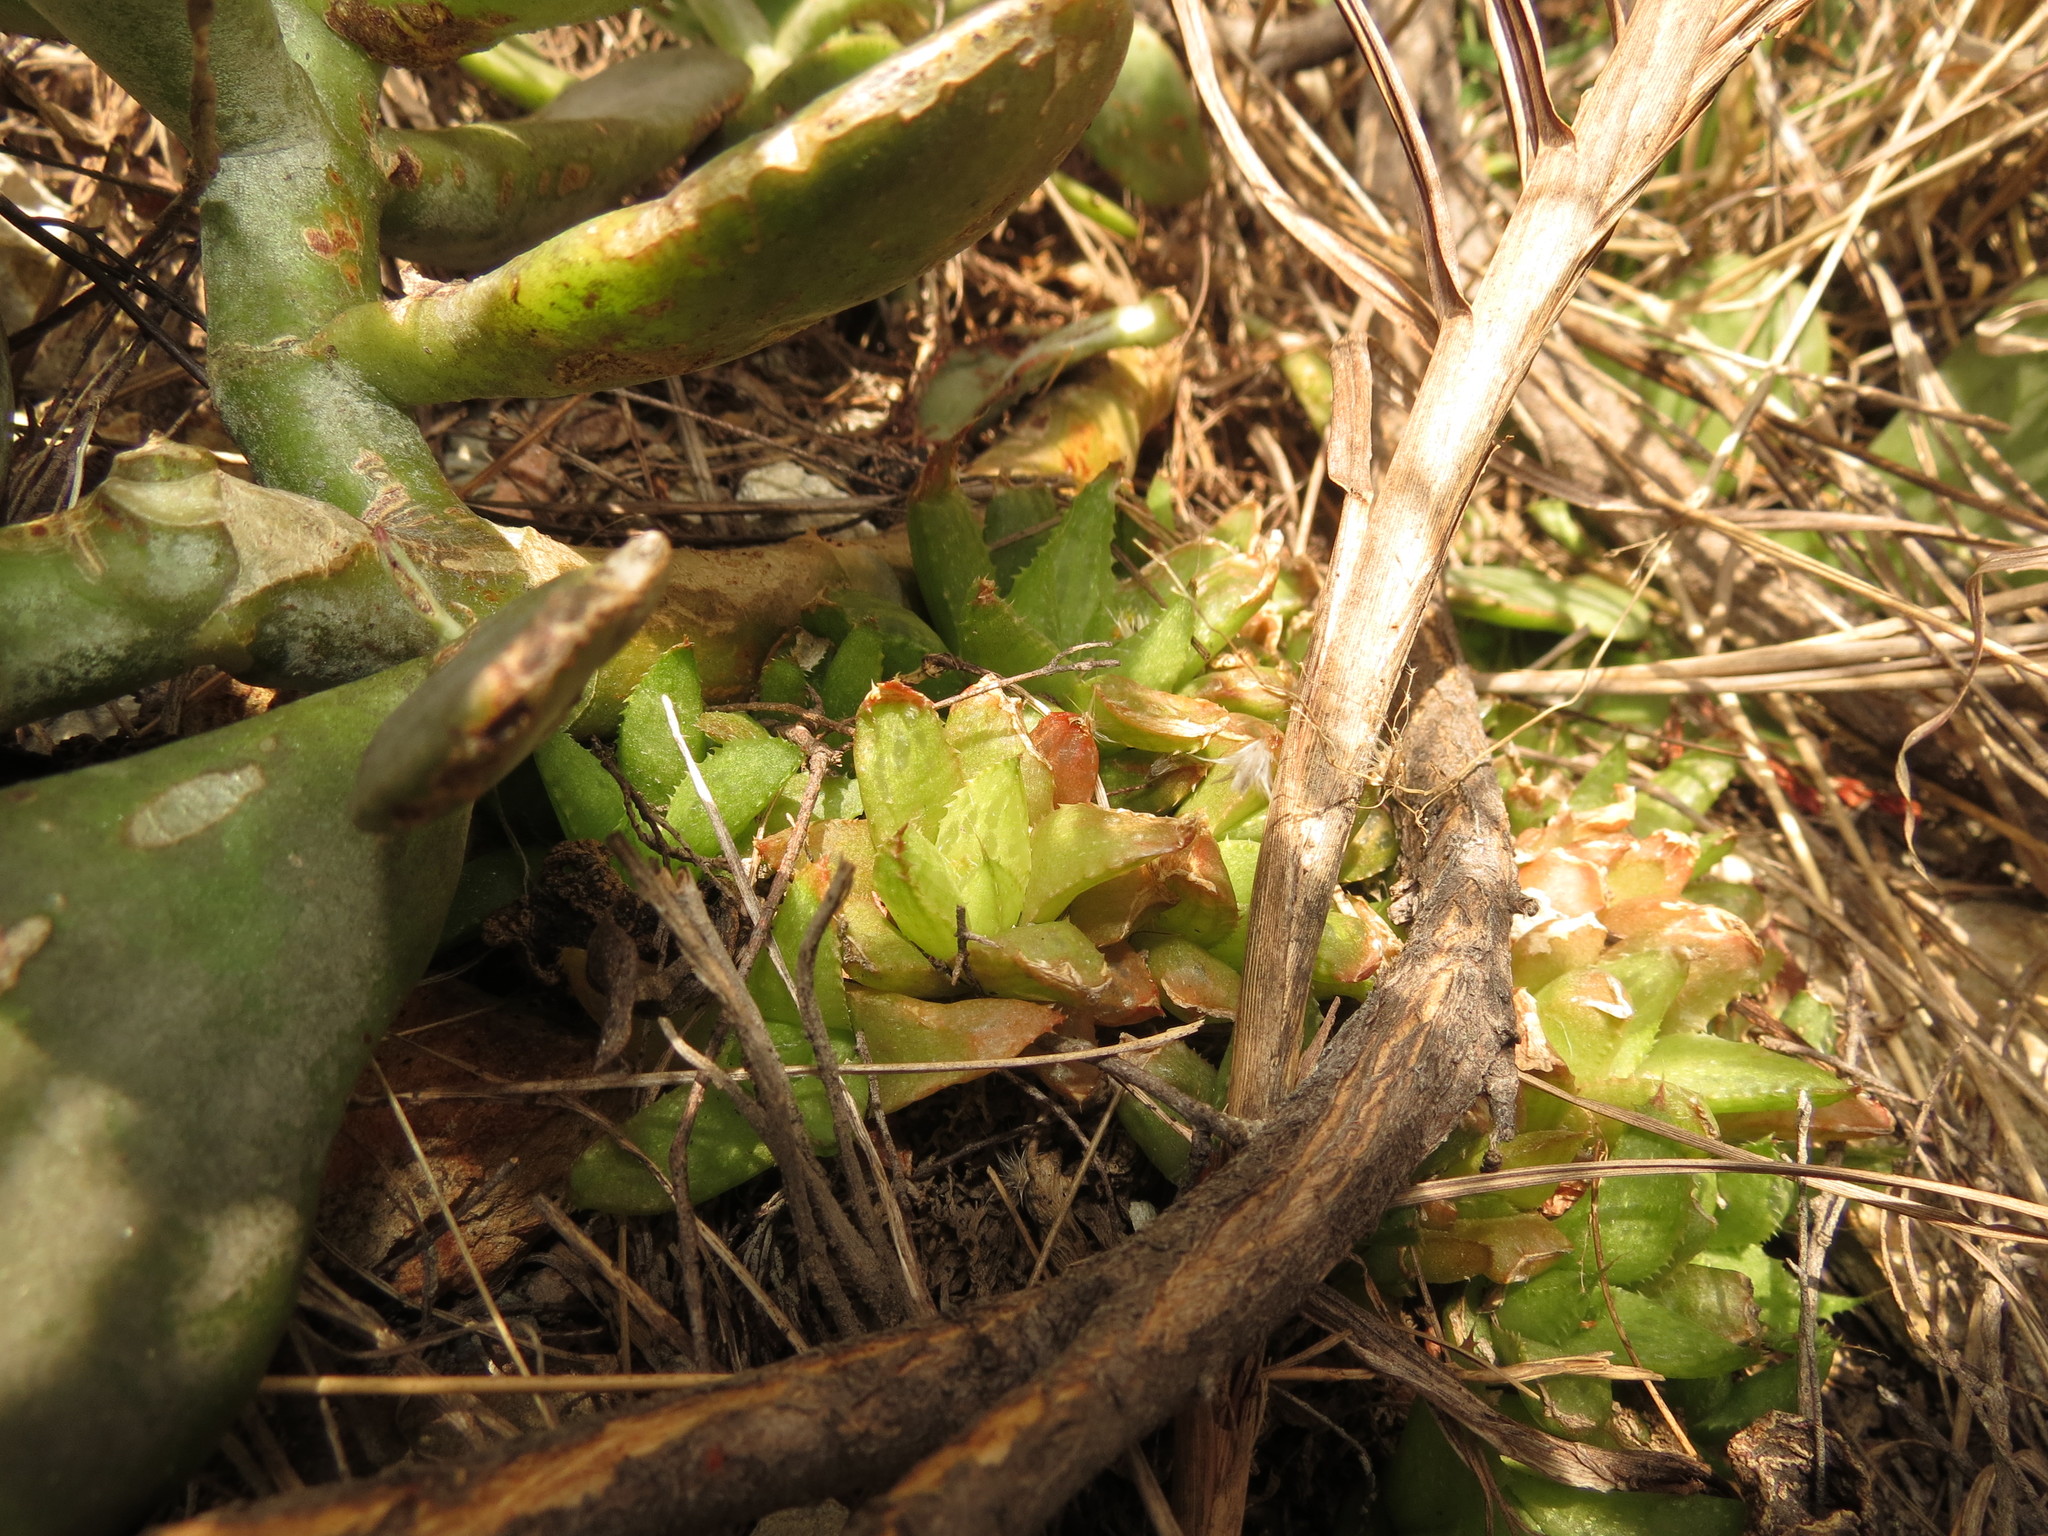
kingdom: Plantae
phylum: Tracheophyta
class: Liliopsida
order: Asparagales
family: Asphodelaceae
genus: Haworthia
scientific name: Haworthia turgida
